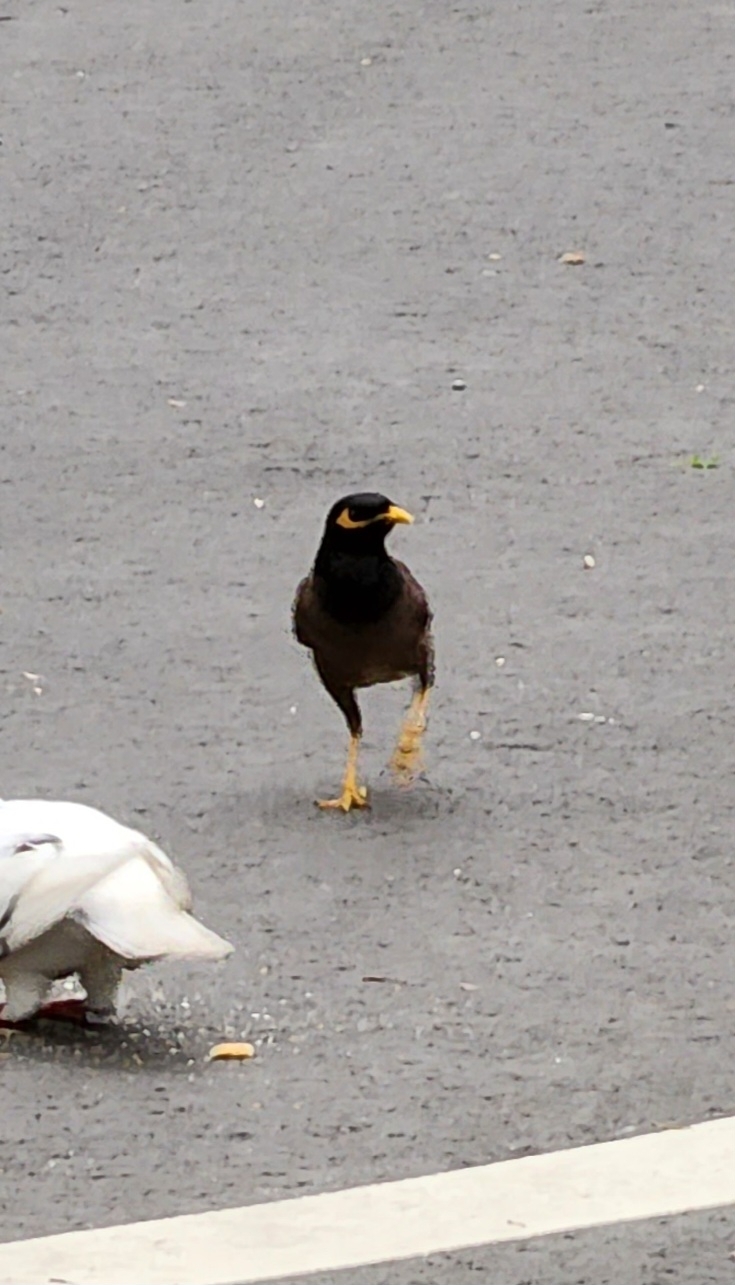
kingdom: Animalia
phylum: Chordata
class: Aves
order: Passeriformes
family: Sturnidae
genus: Acridotheres
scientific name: Acridotheres tristis
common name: Common myna
